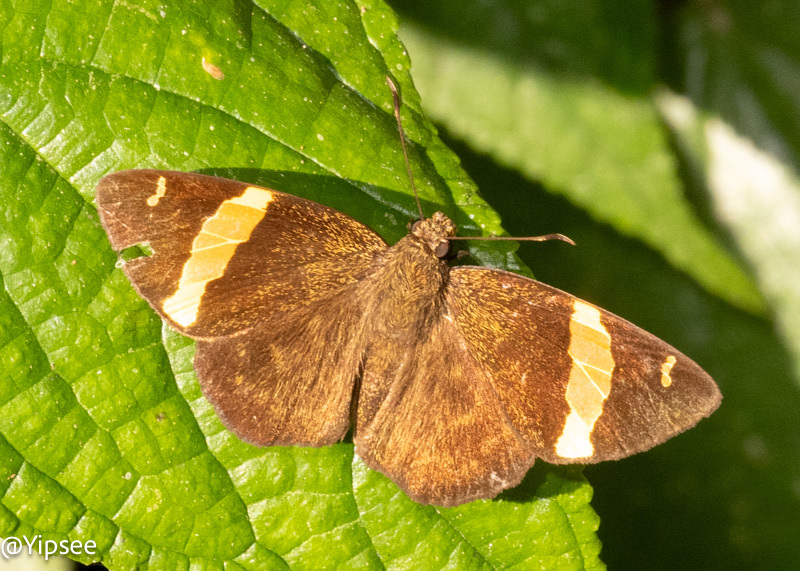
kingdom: Animalia
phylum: Arthropoda
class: Insecta
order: Lepidoptera
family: Hesperiidae
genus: Aurivittia
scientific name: Aurivittia
